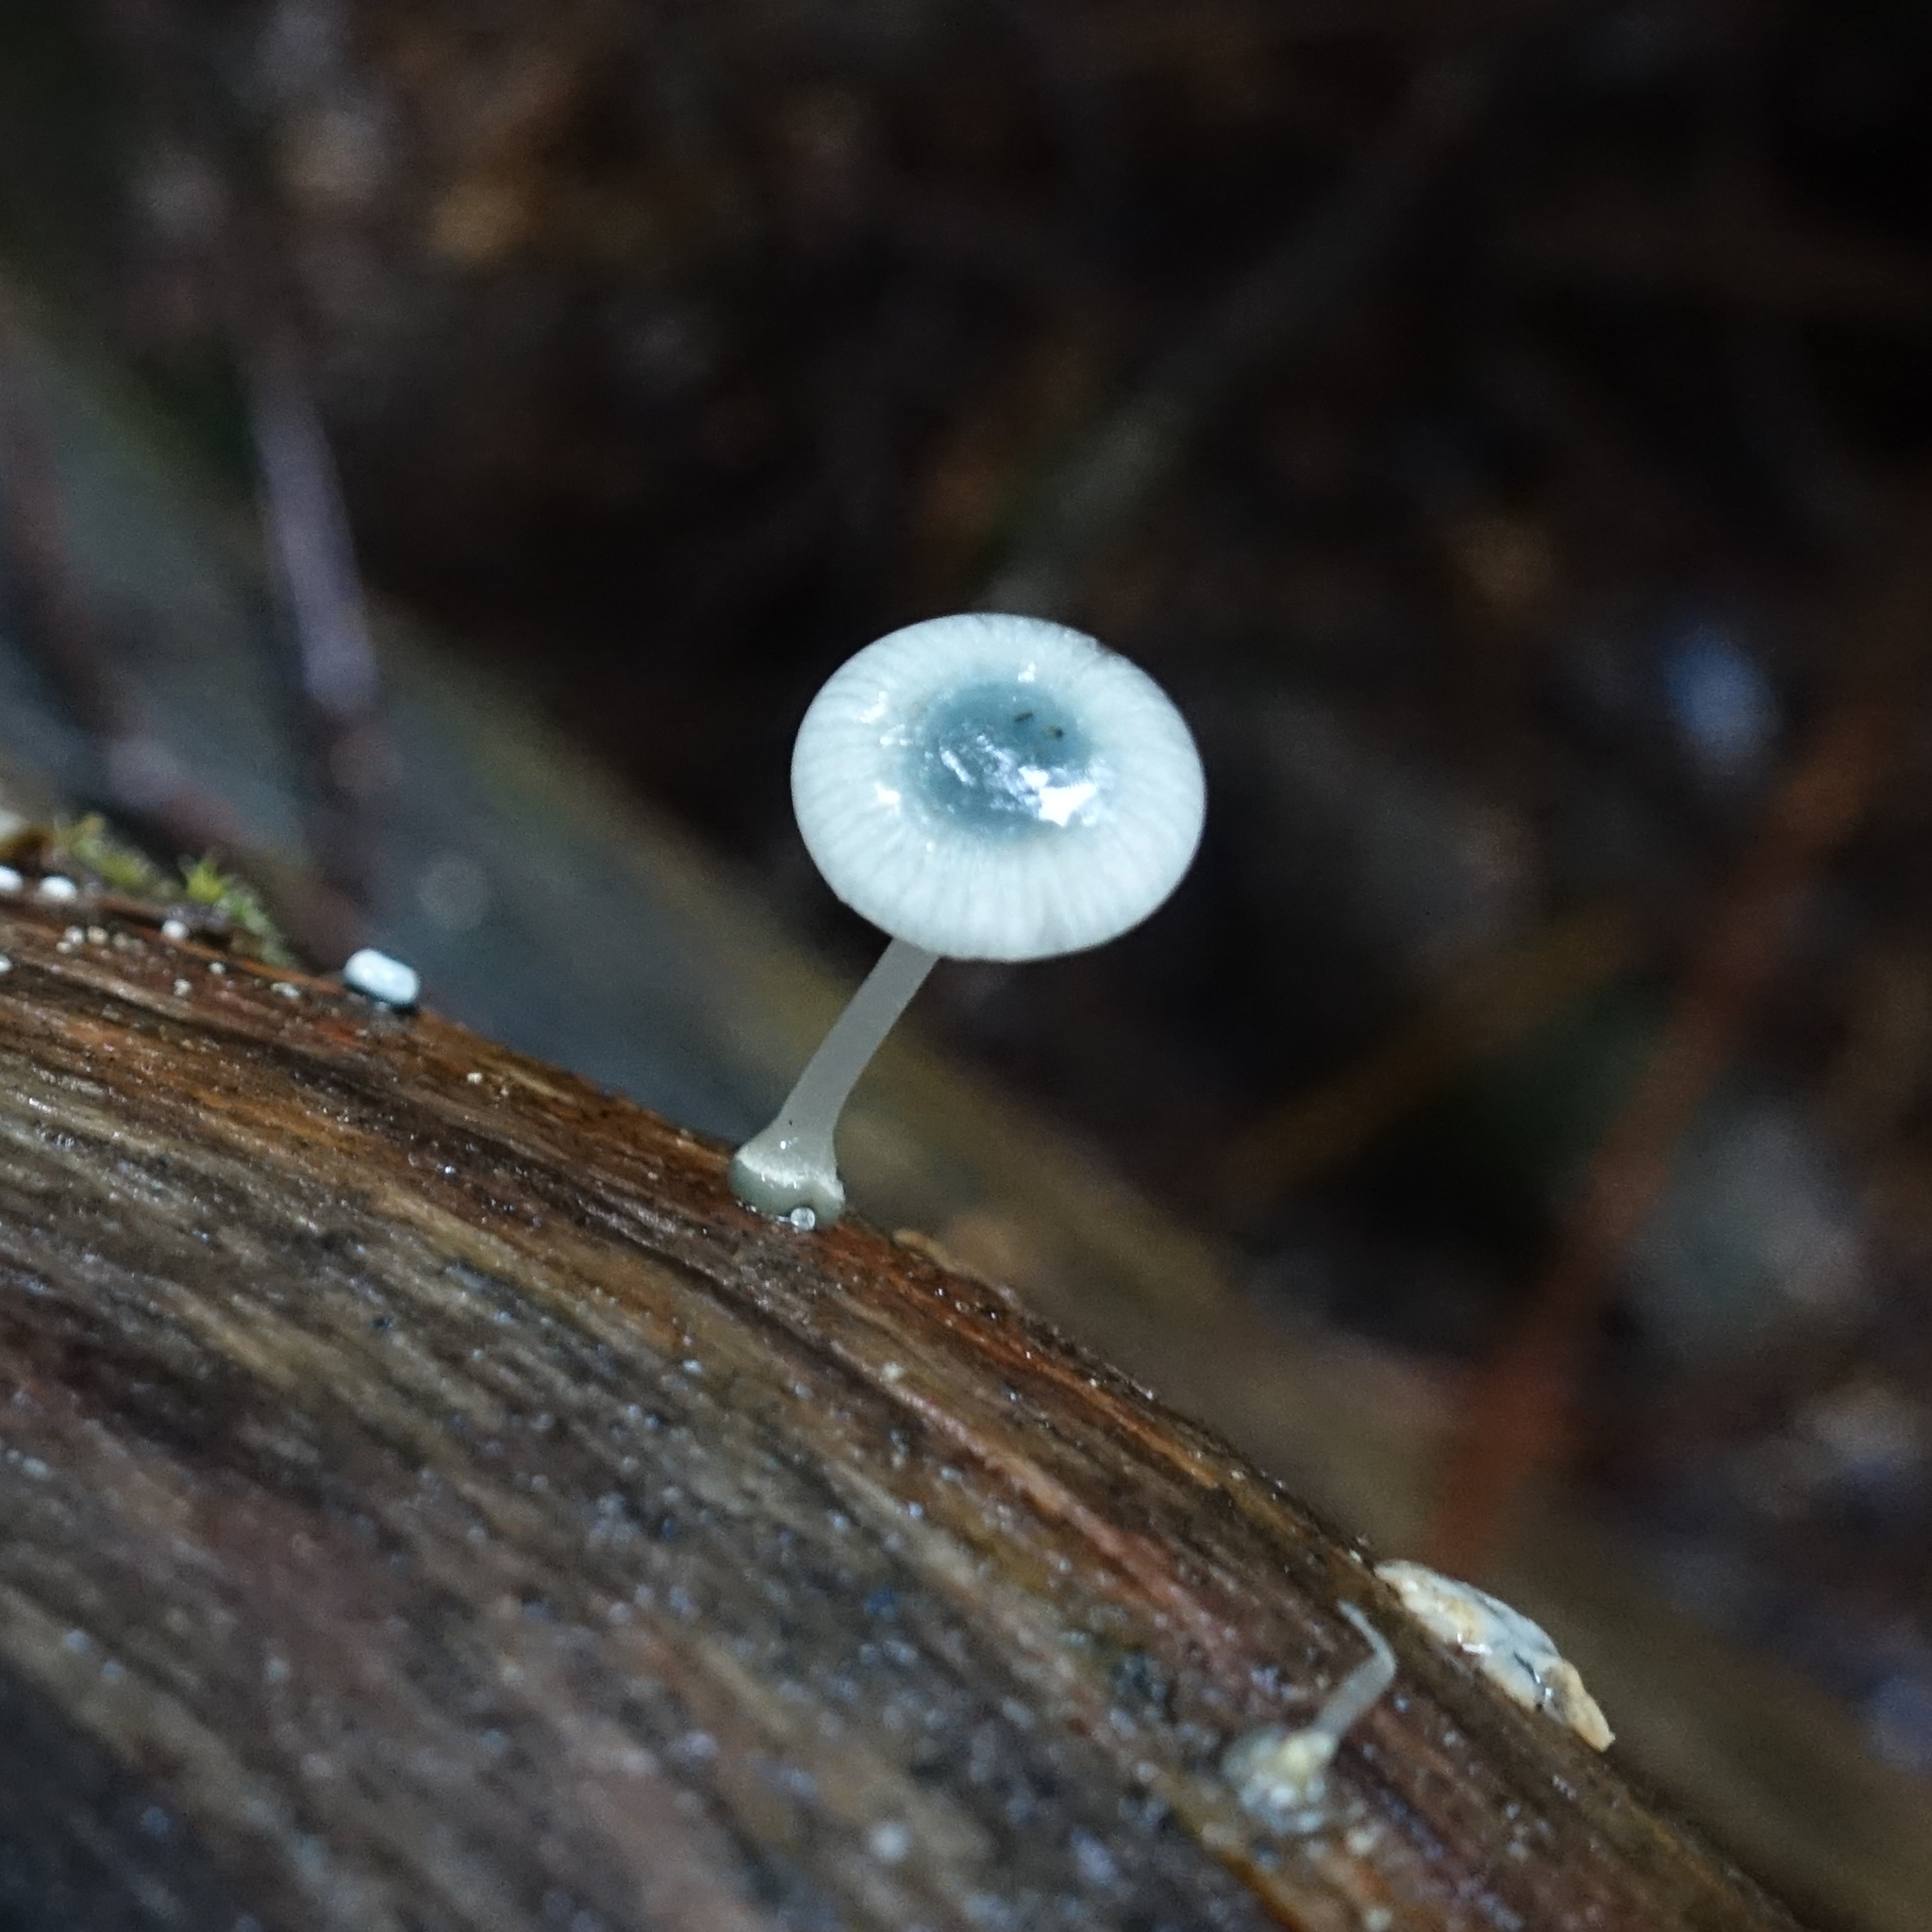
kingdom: Fungi
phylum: Basidiomycota
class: Agaricomycetes
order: Agaricales
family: Mycenaceae
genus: Mycena
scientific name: Mycena interrupta
